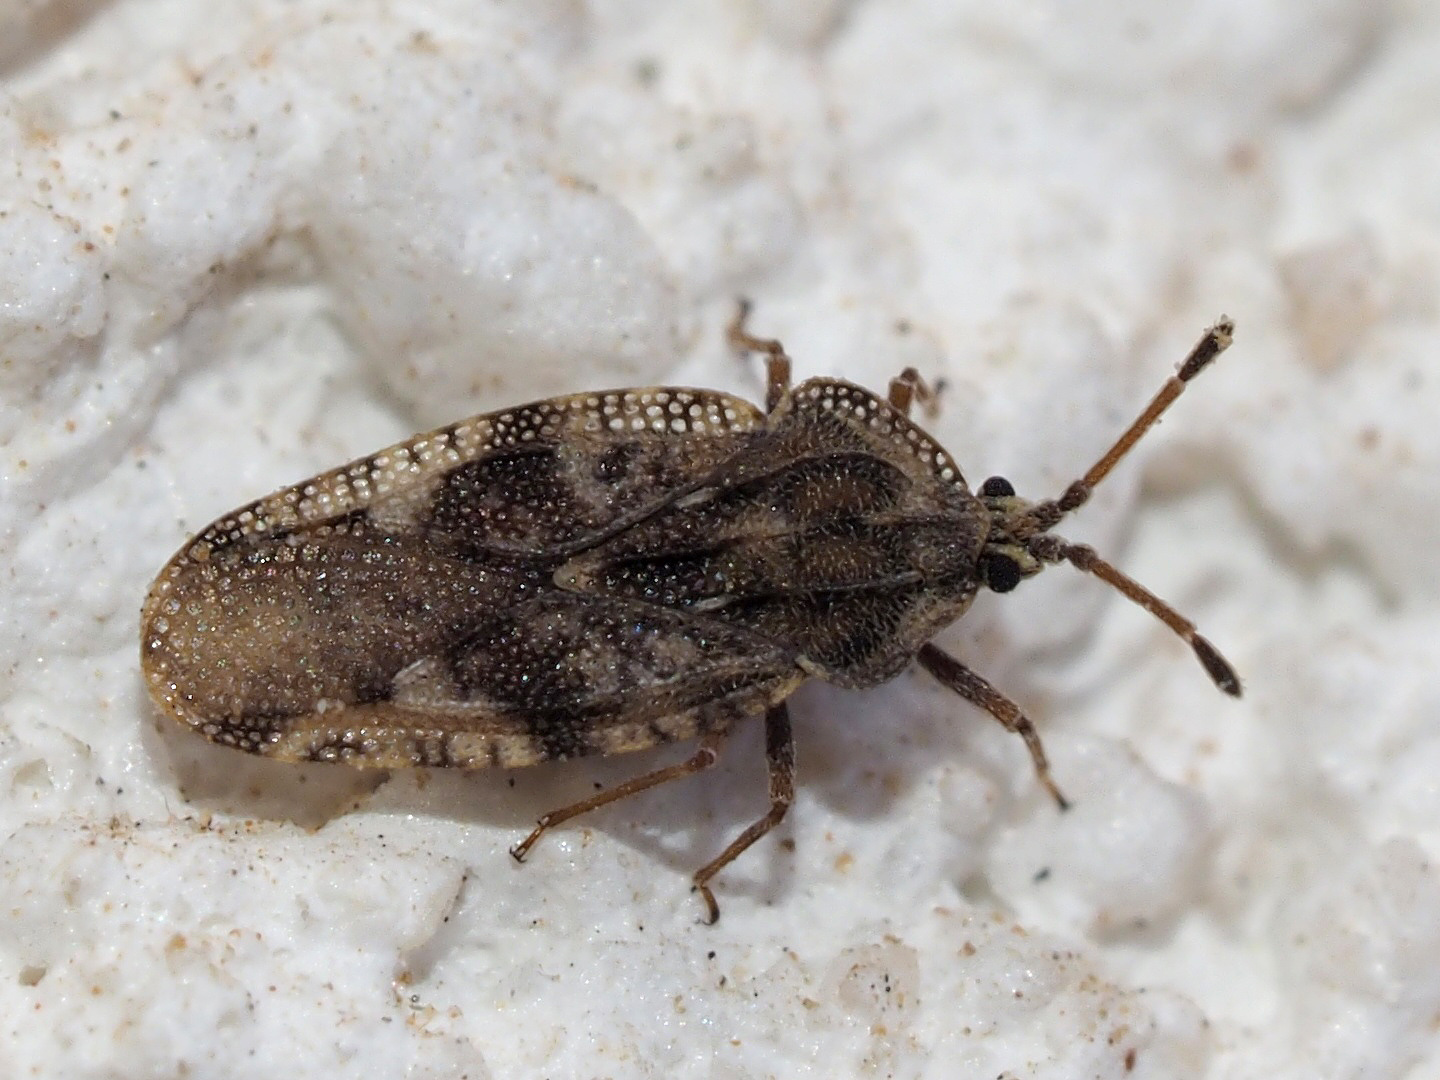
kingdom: Animalia
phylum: Arthropoda
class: Insecta
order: Hemiptera
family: Tingidae
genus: Tingis
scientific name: Tingis cardui
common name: Spear thistle lacebug
